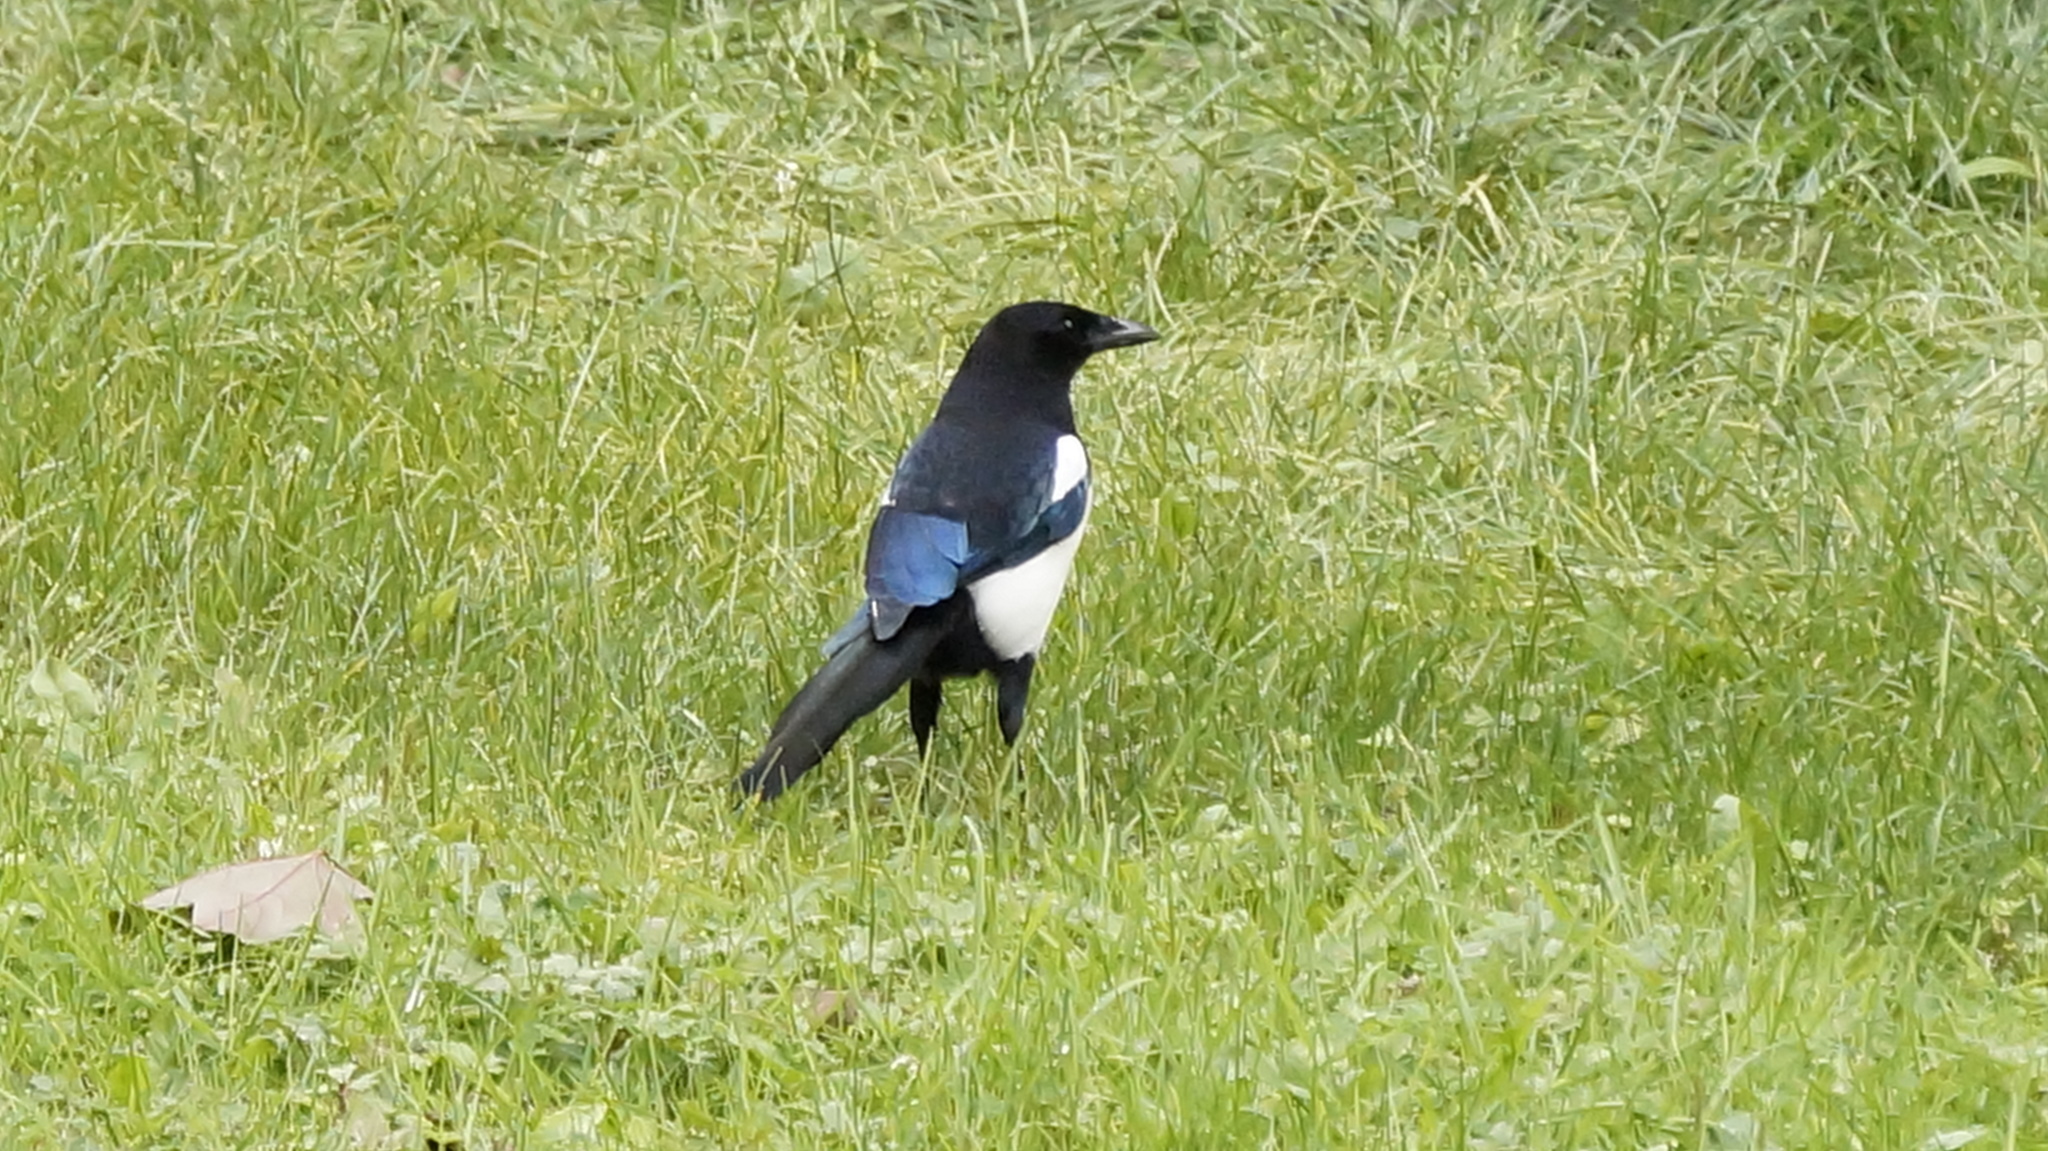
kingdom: Animalia
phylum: Chordata
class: Aves
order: Passeriformes
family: Corvidae
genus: Pica
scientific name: Pica pica
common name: Eurasian magpie
